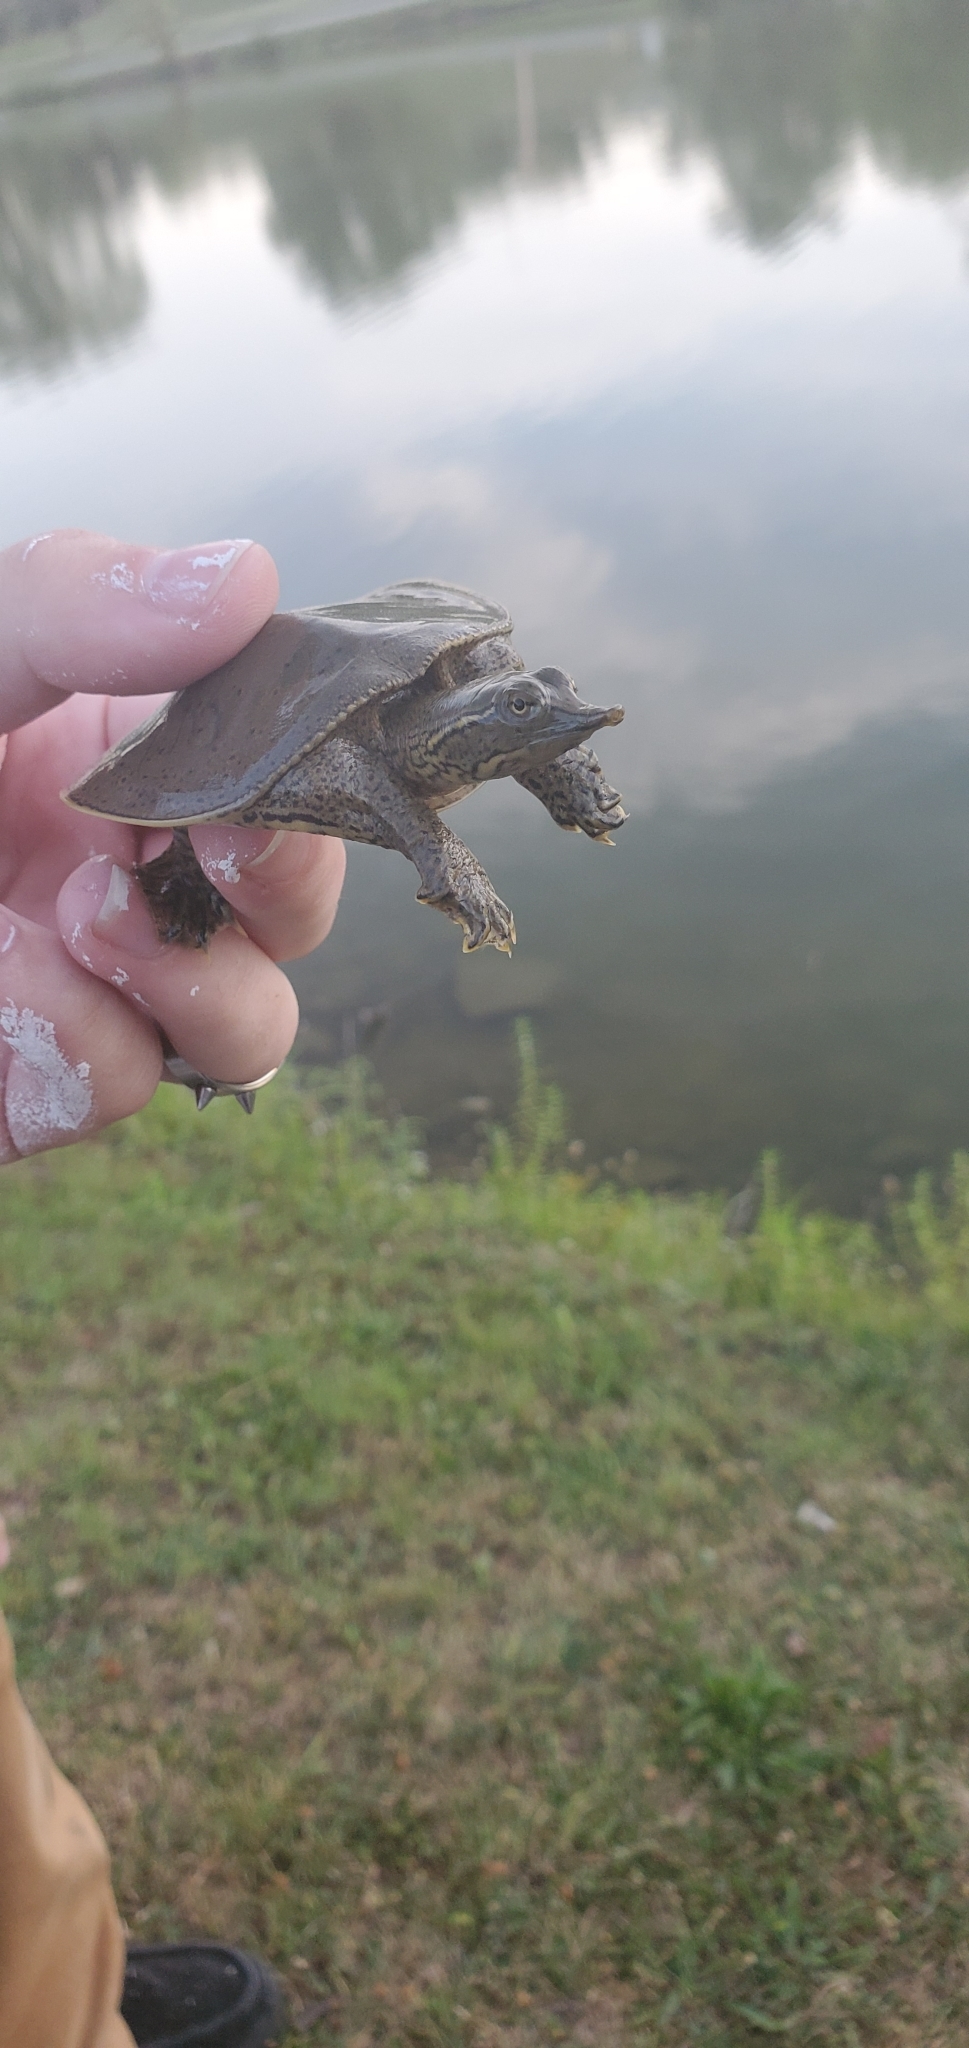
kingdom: Animalia
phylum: Chordata
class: Testudines
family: Trionychidae
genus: Apalone
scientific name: Apalone spinifera
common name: Spiny softshell turtle
